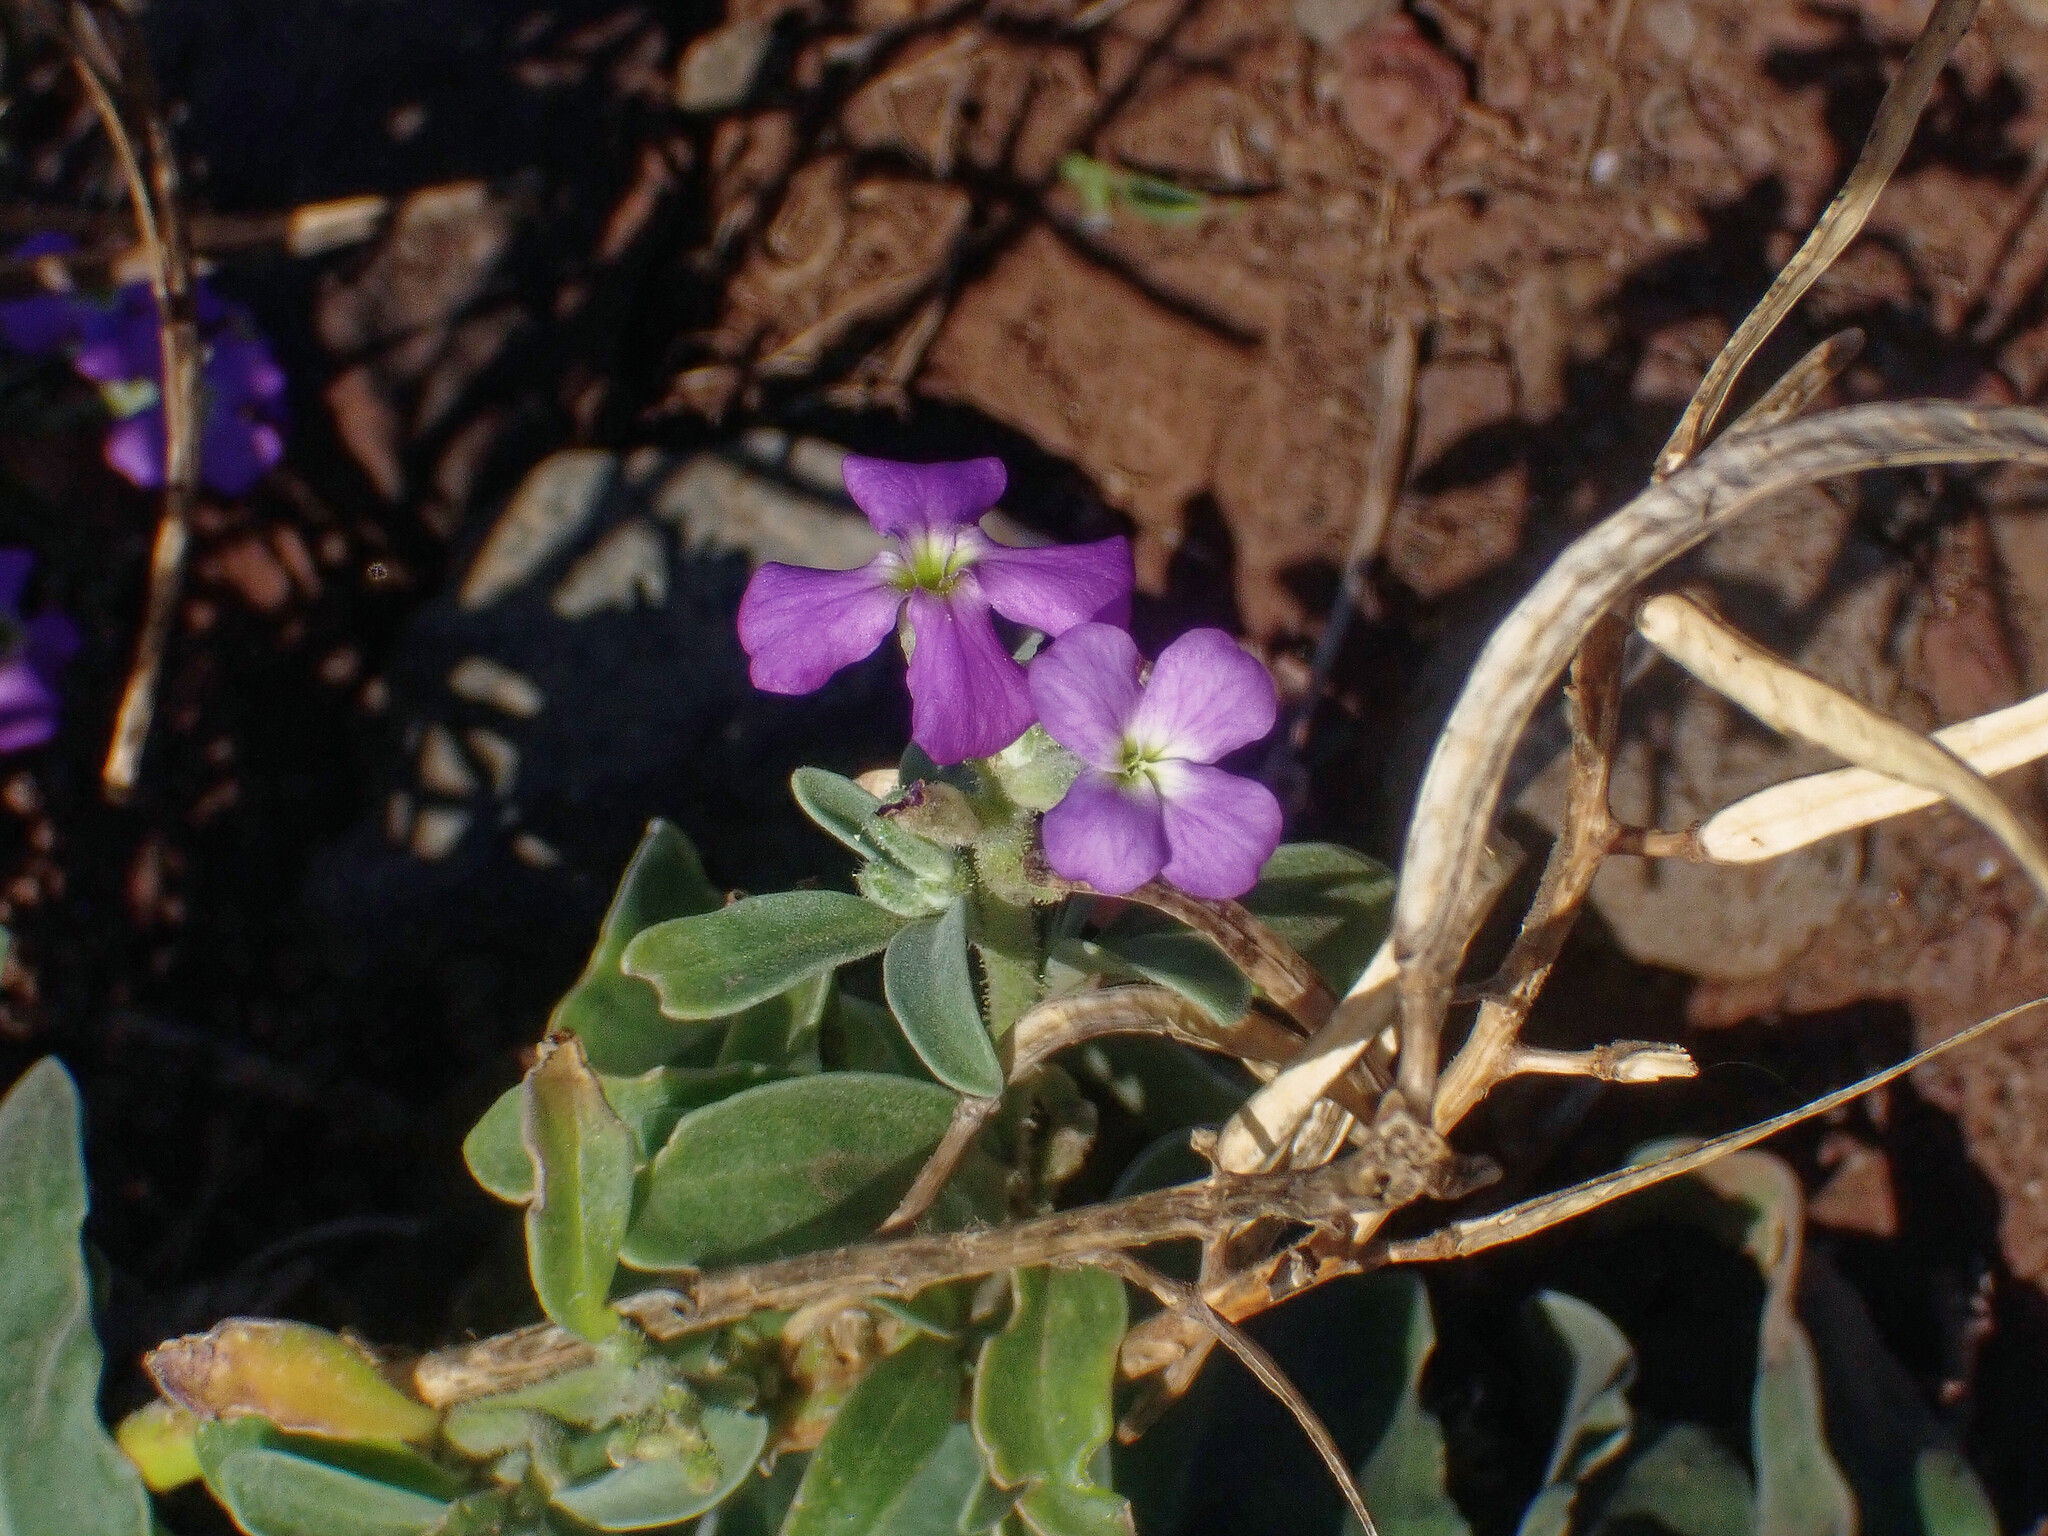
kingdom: Plantae
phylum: Tracheophyta
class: Magnoliopsida
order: Brassicales
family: Brassicaceae
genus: Matthiola
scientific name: Matthiola maderensis
